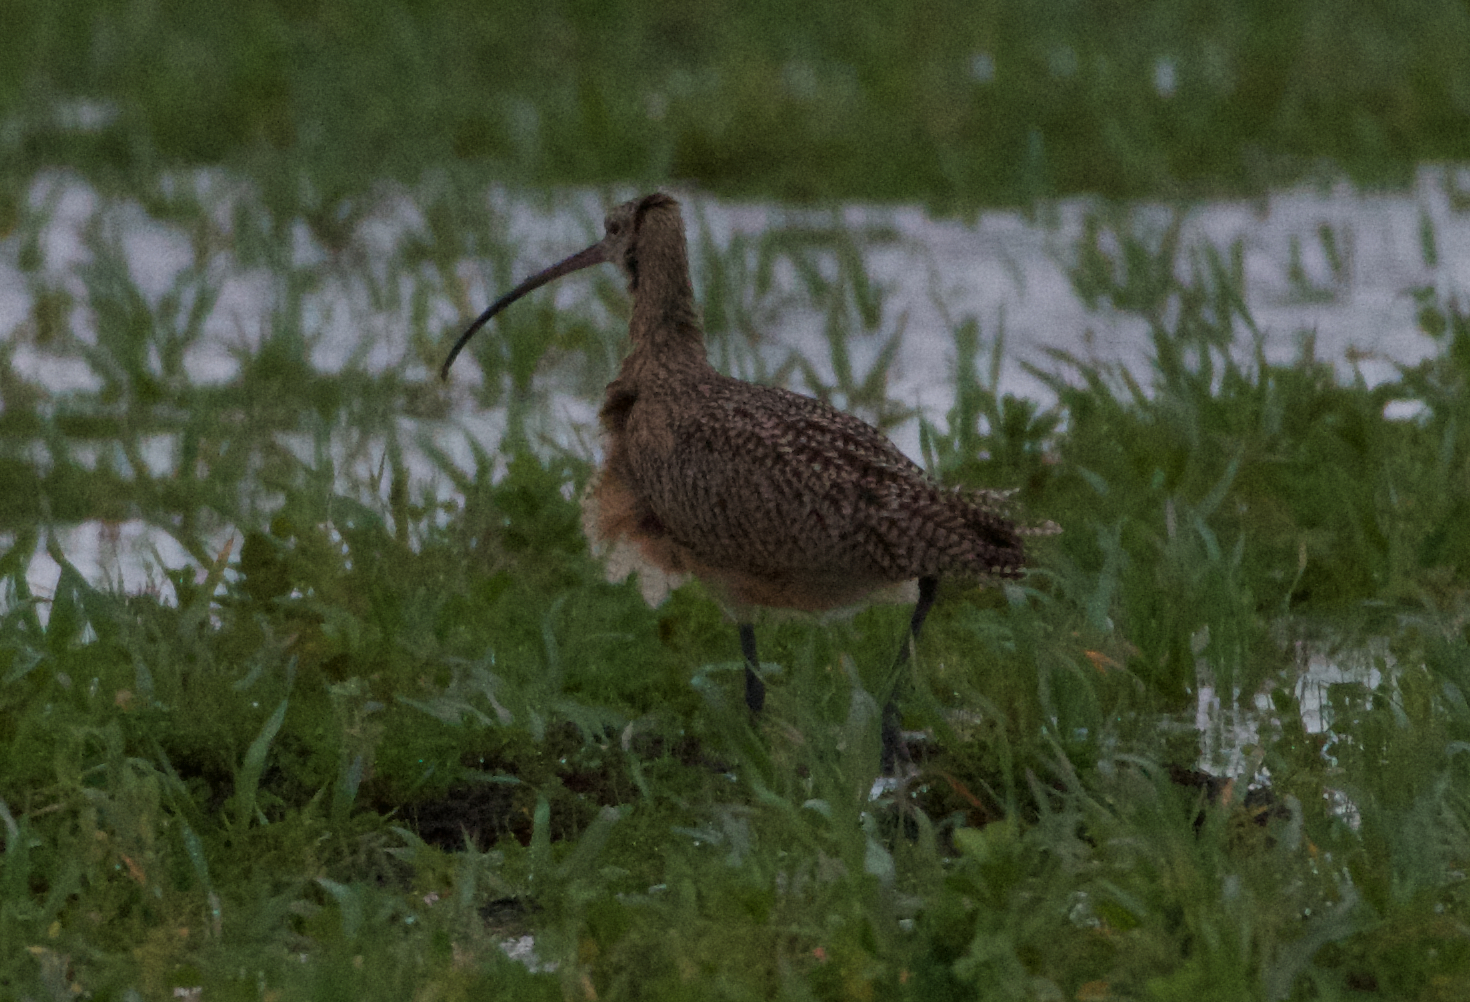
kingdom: Animalia
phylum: Chordata
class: Aves
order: Charadriiformes
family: Scolopacidae
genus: Numenius
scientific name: Numenius americanus
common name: Long-billed curlew
